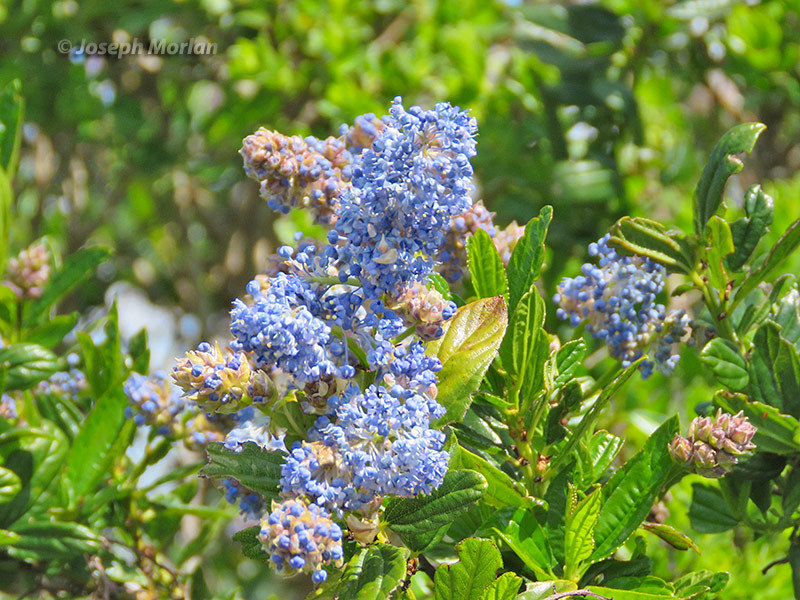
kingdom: Plantae
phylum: Tracheophyta
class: Magnoliopsida
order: Rosales
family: Rhamnaceae
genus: Ceanothus
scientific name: Ceanothus thyrsiflorus
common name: California-lilac
